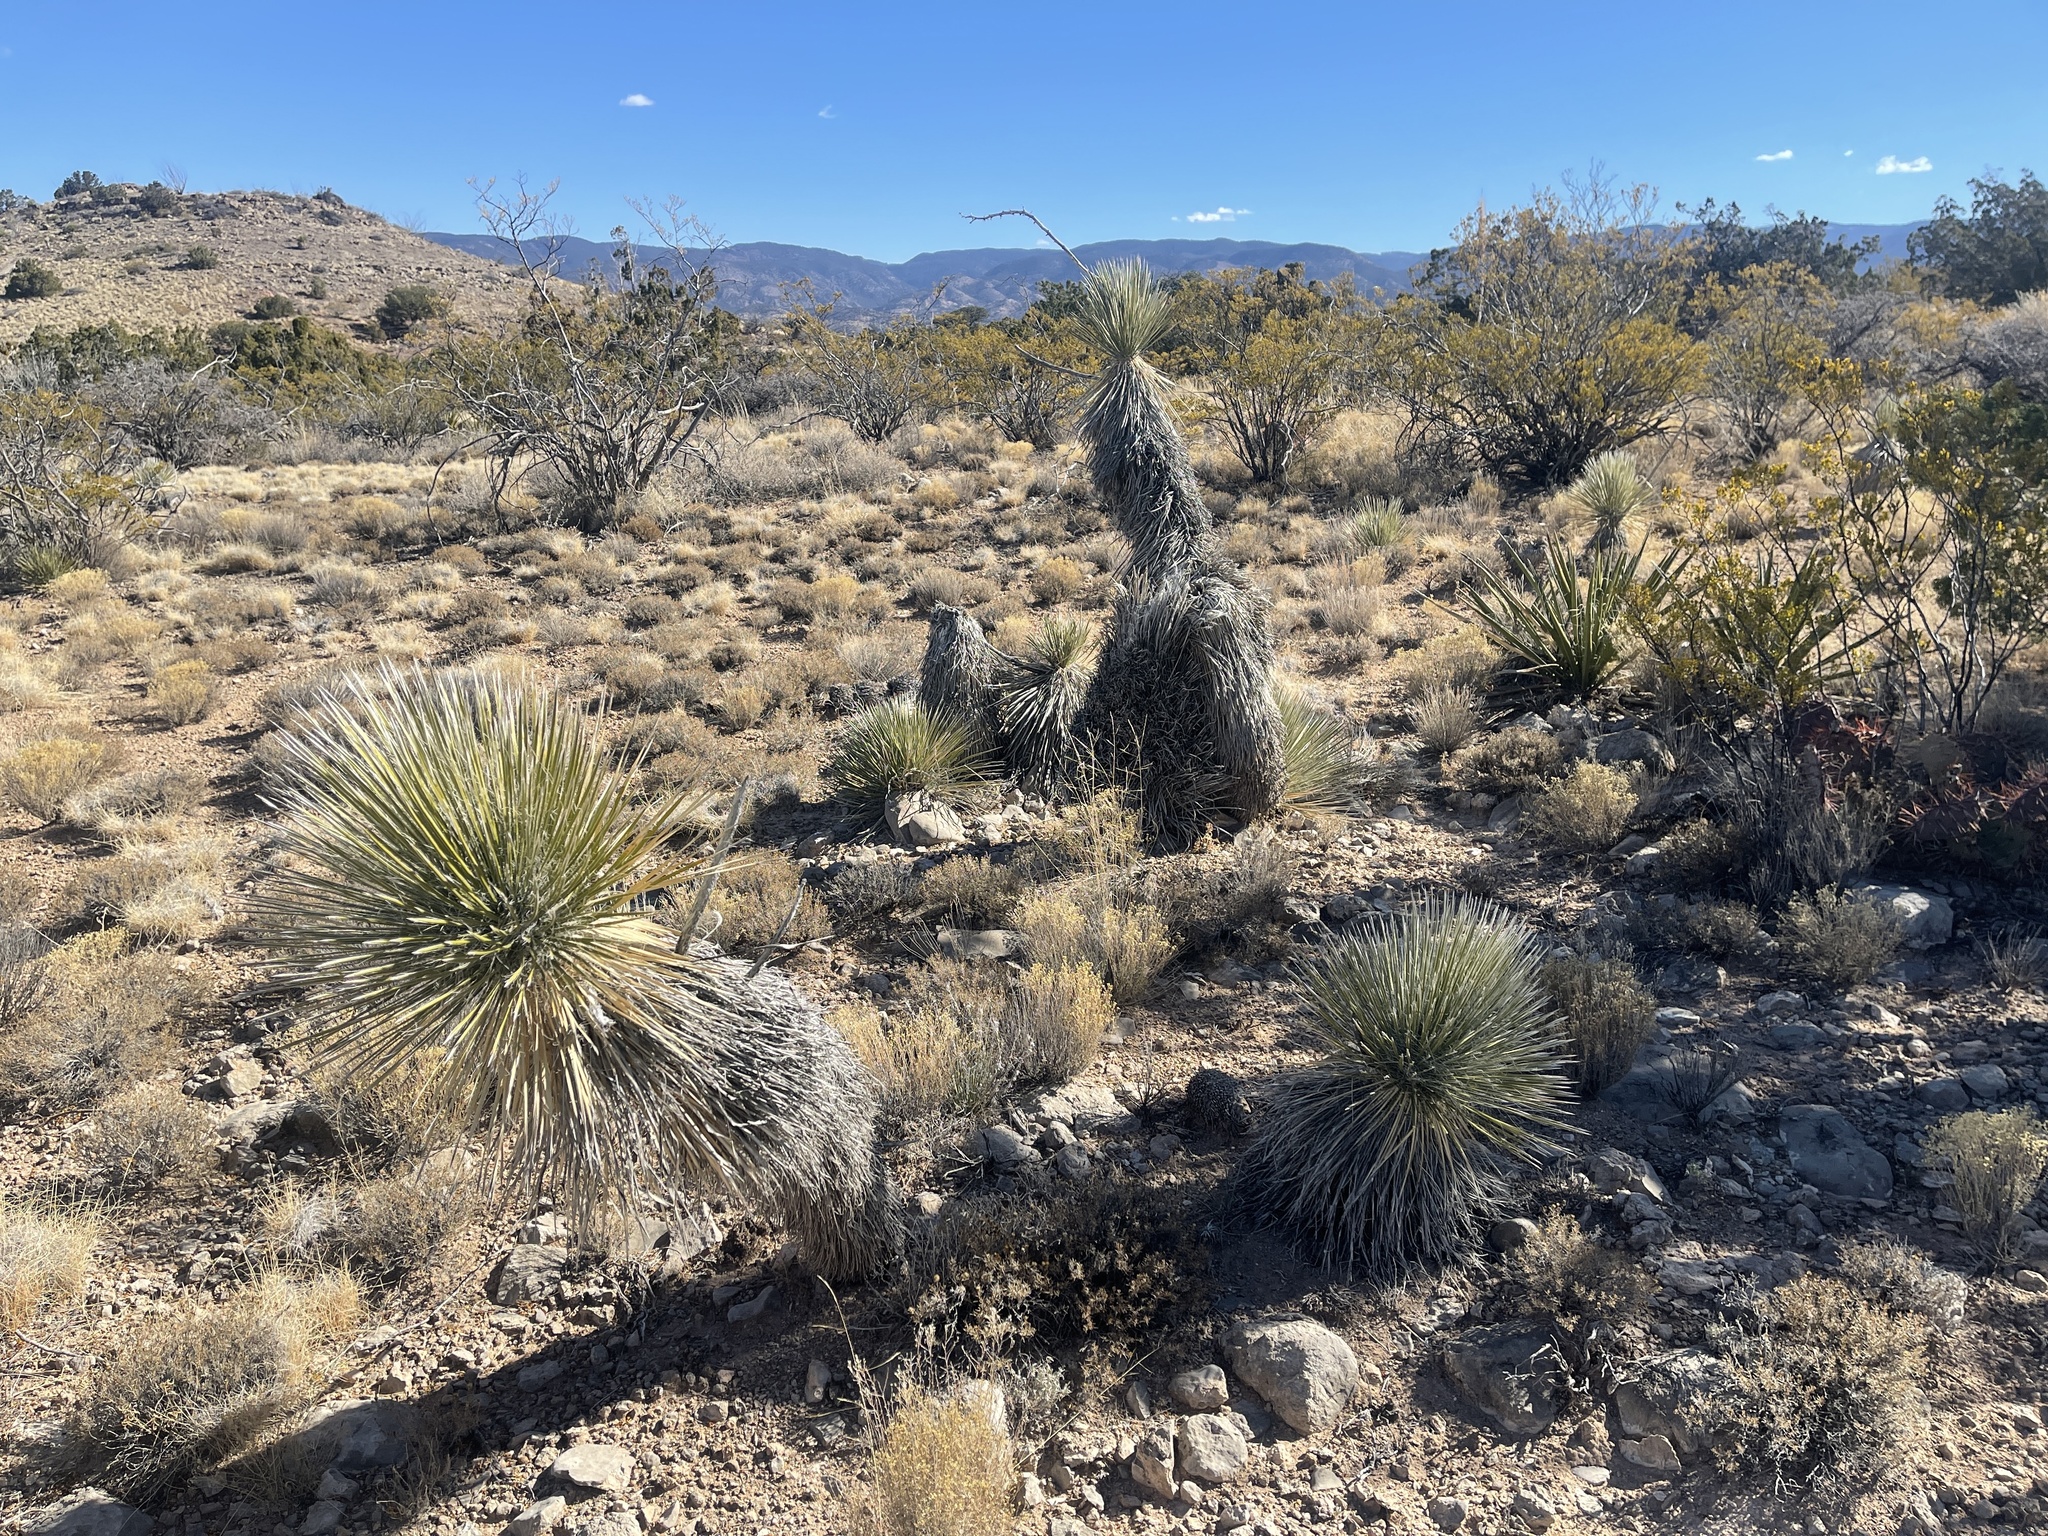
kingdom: Plantae
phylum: Tracheophyta
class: Liliopsida
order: Asparagales
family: Asparagaceae
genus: Yucca
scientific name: Yucca elata
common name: Palmella
